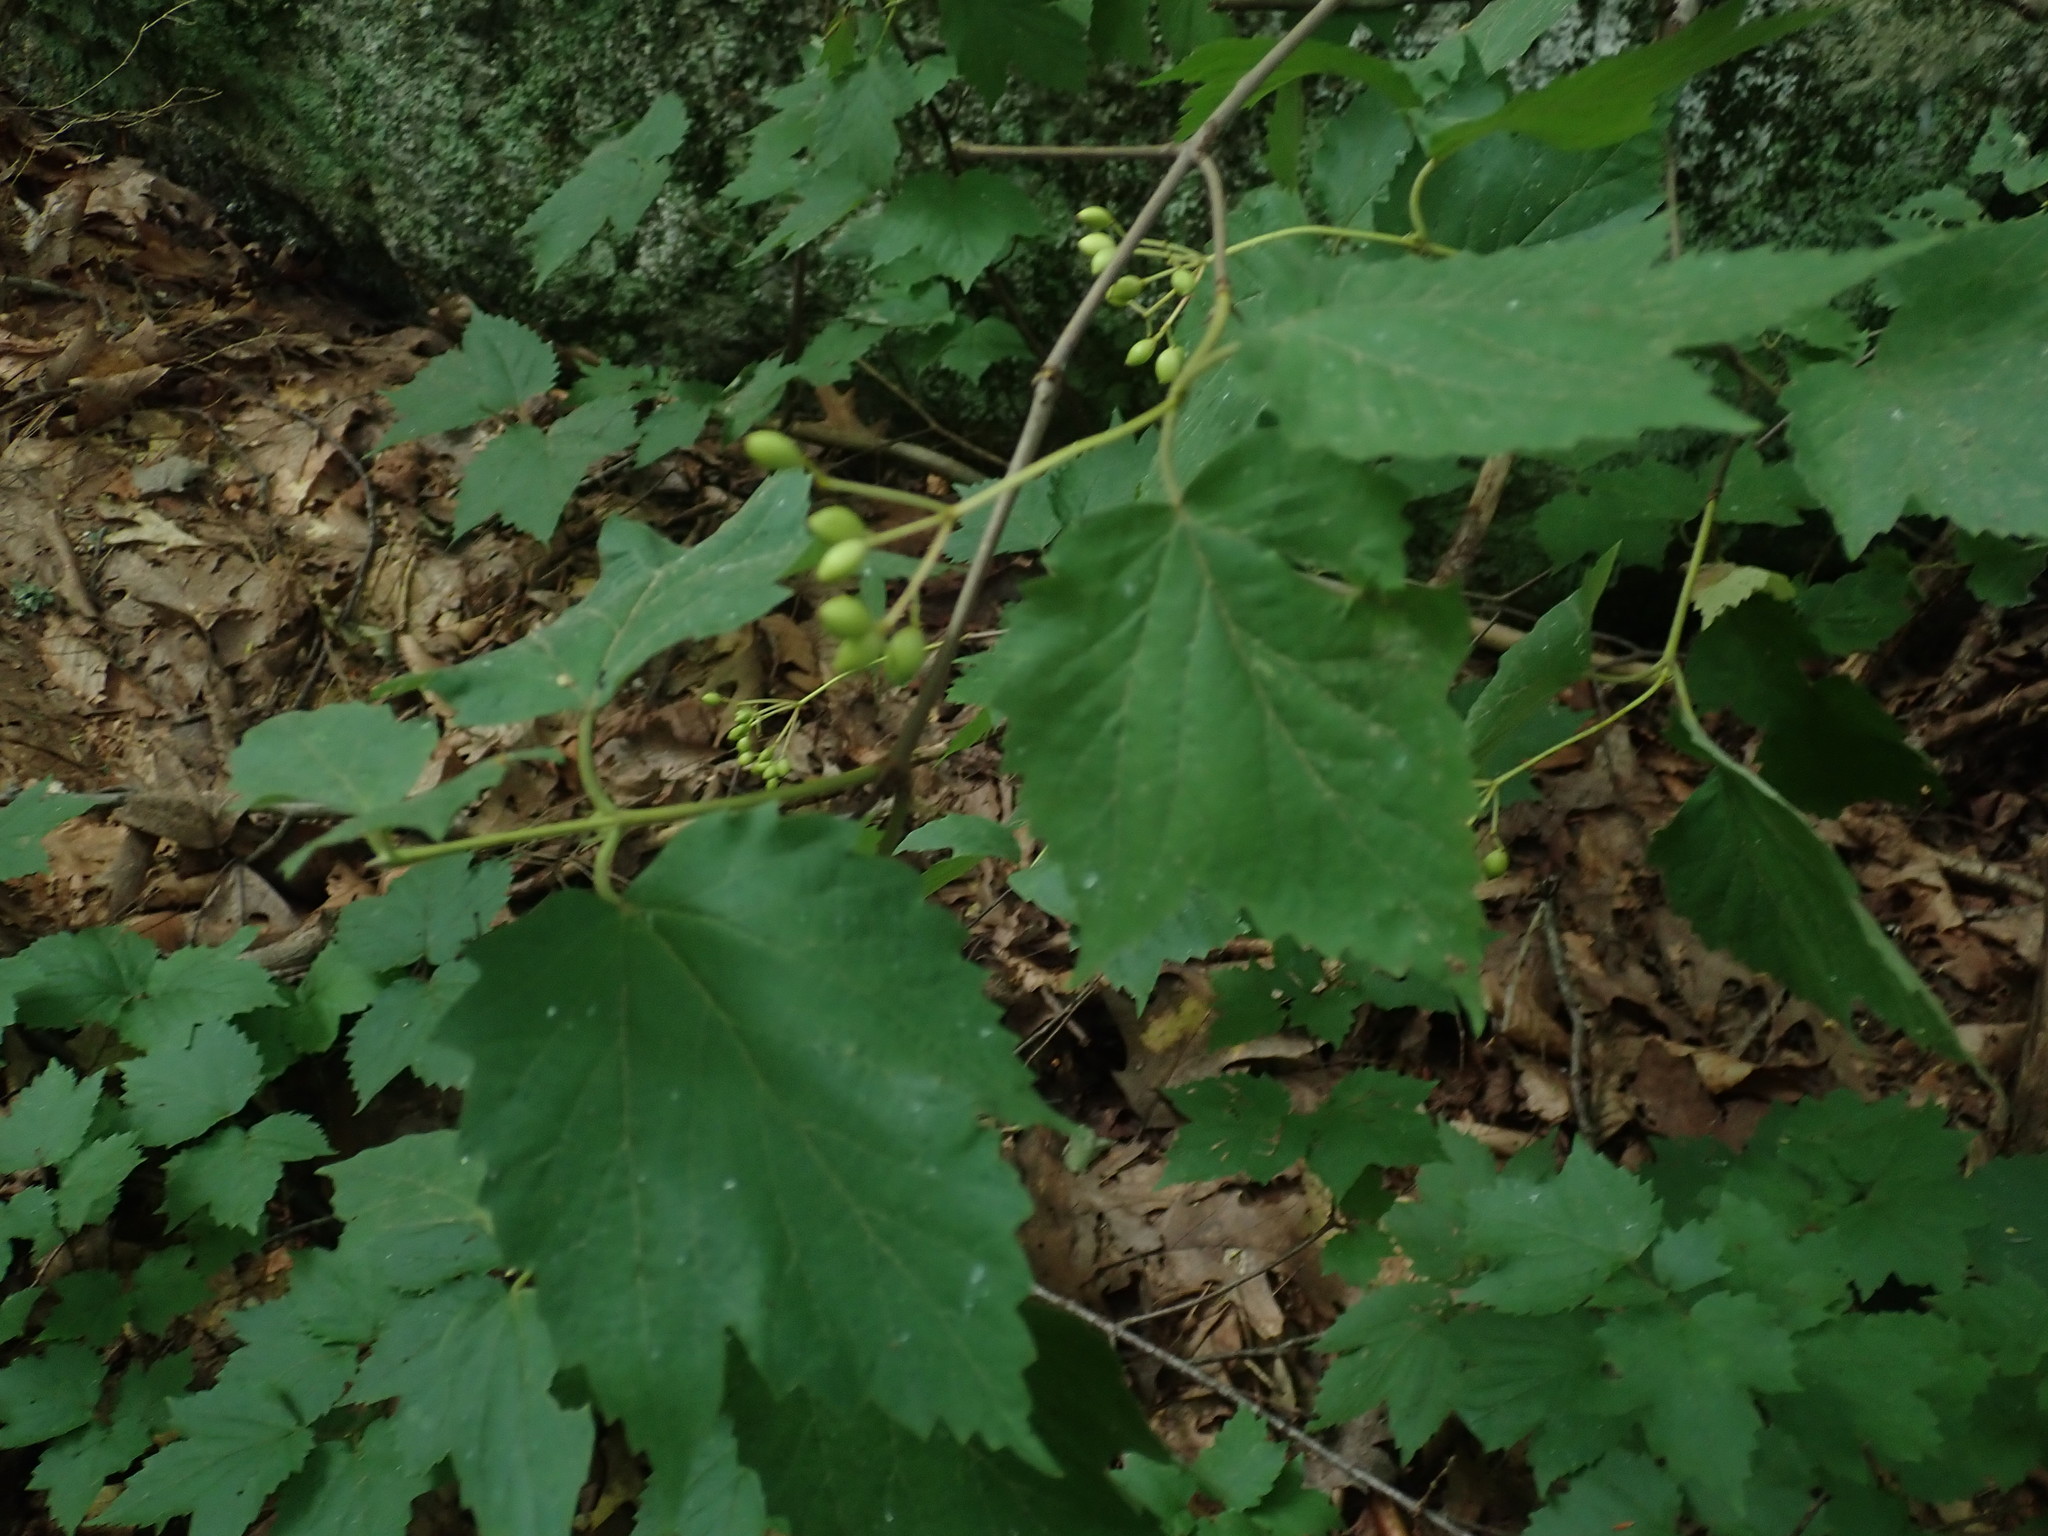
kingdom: Plantae
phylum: Tracheophyta
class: Magnoliopsida
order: Dipsacales
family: Viburnaceae
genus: Viburnum
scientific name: Viburnum acerifolium
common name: Dockmackie
